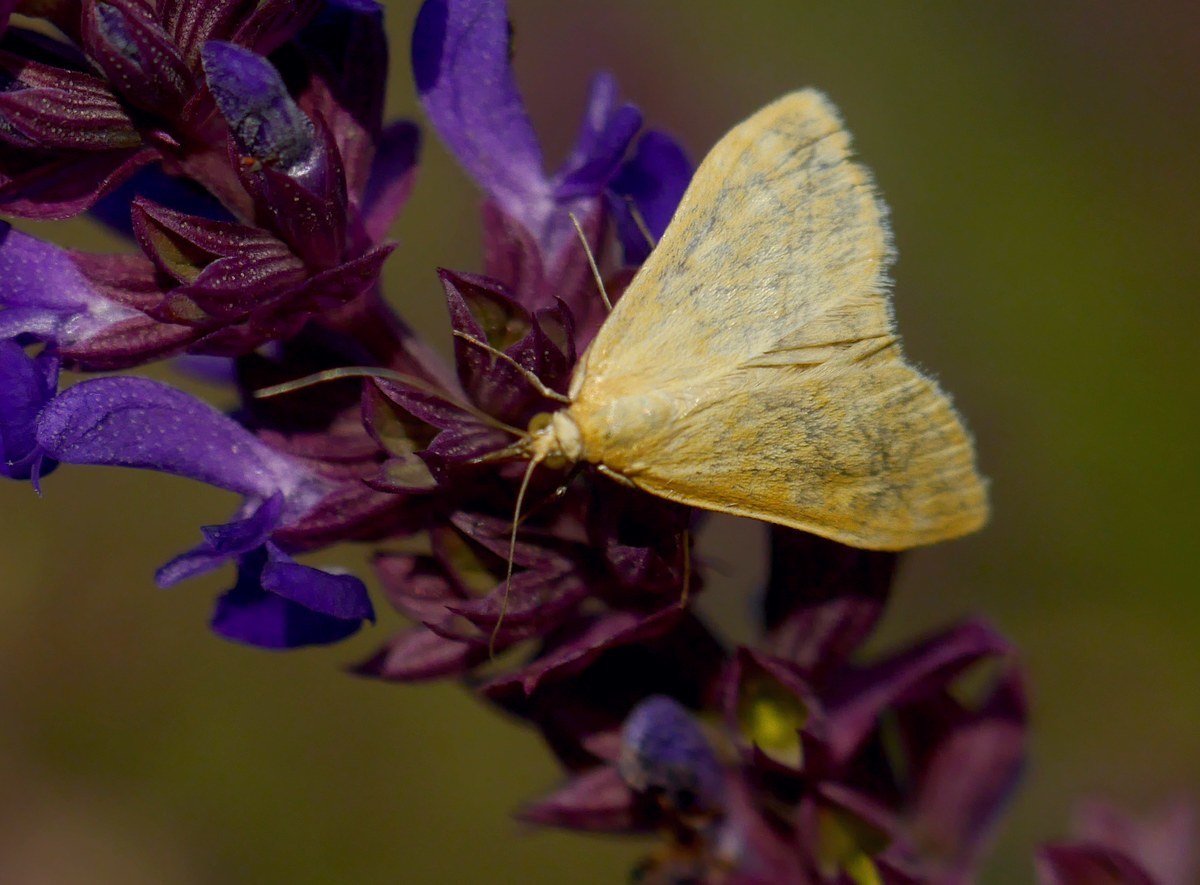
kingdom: Animalia
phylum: Arthropoda
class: Insecta
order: Lepidoptera
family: Crambidae
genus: Sitochroa
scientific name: Sitochroa verticalis
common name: Lesser pearl
